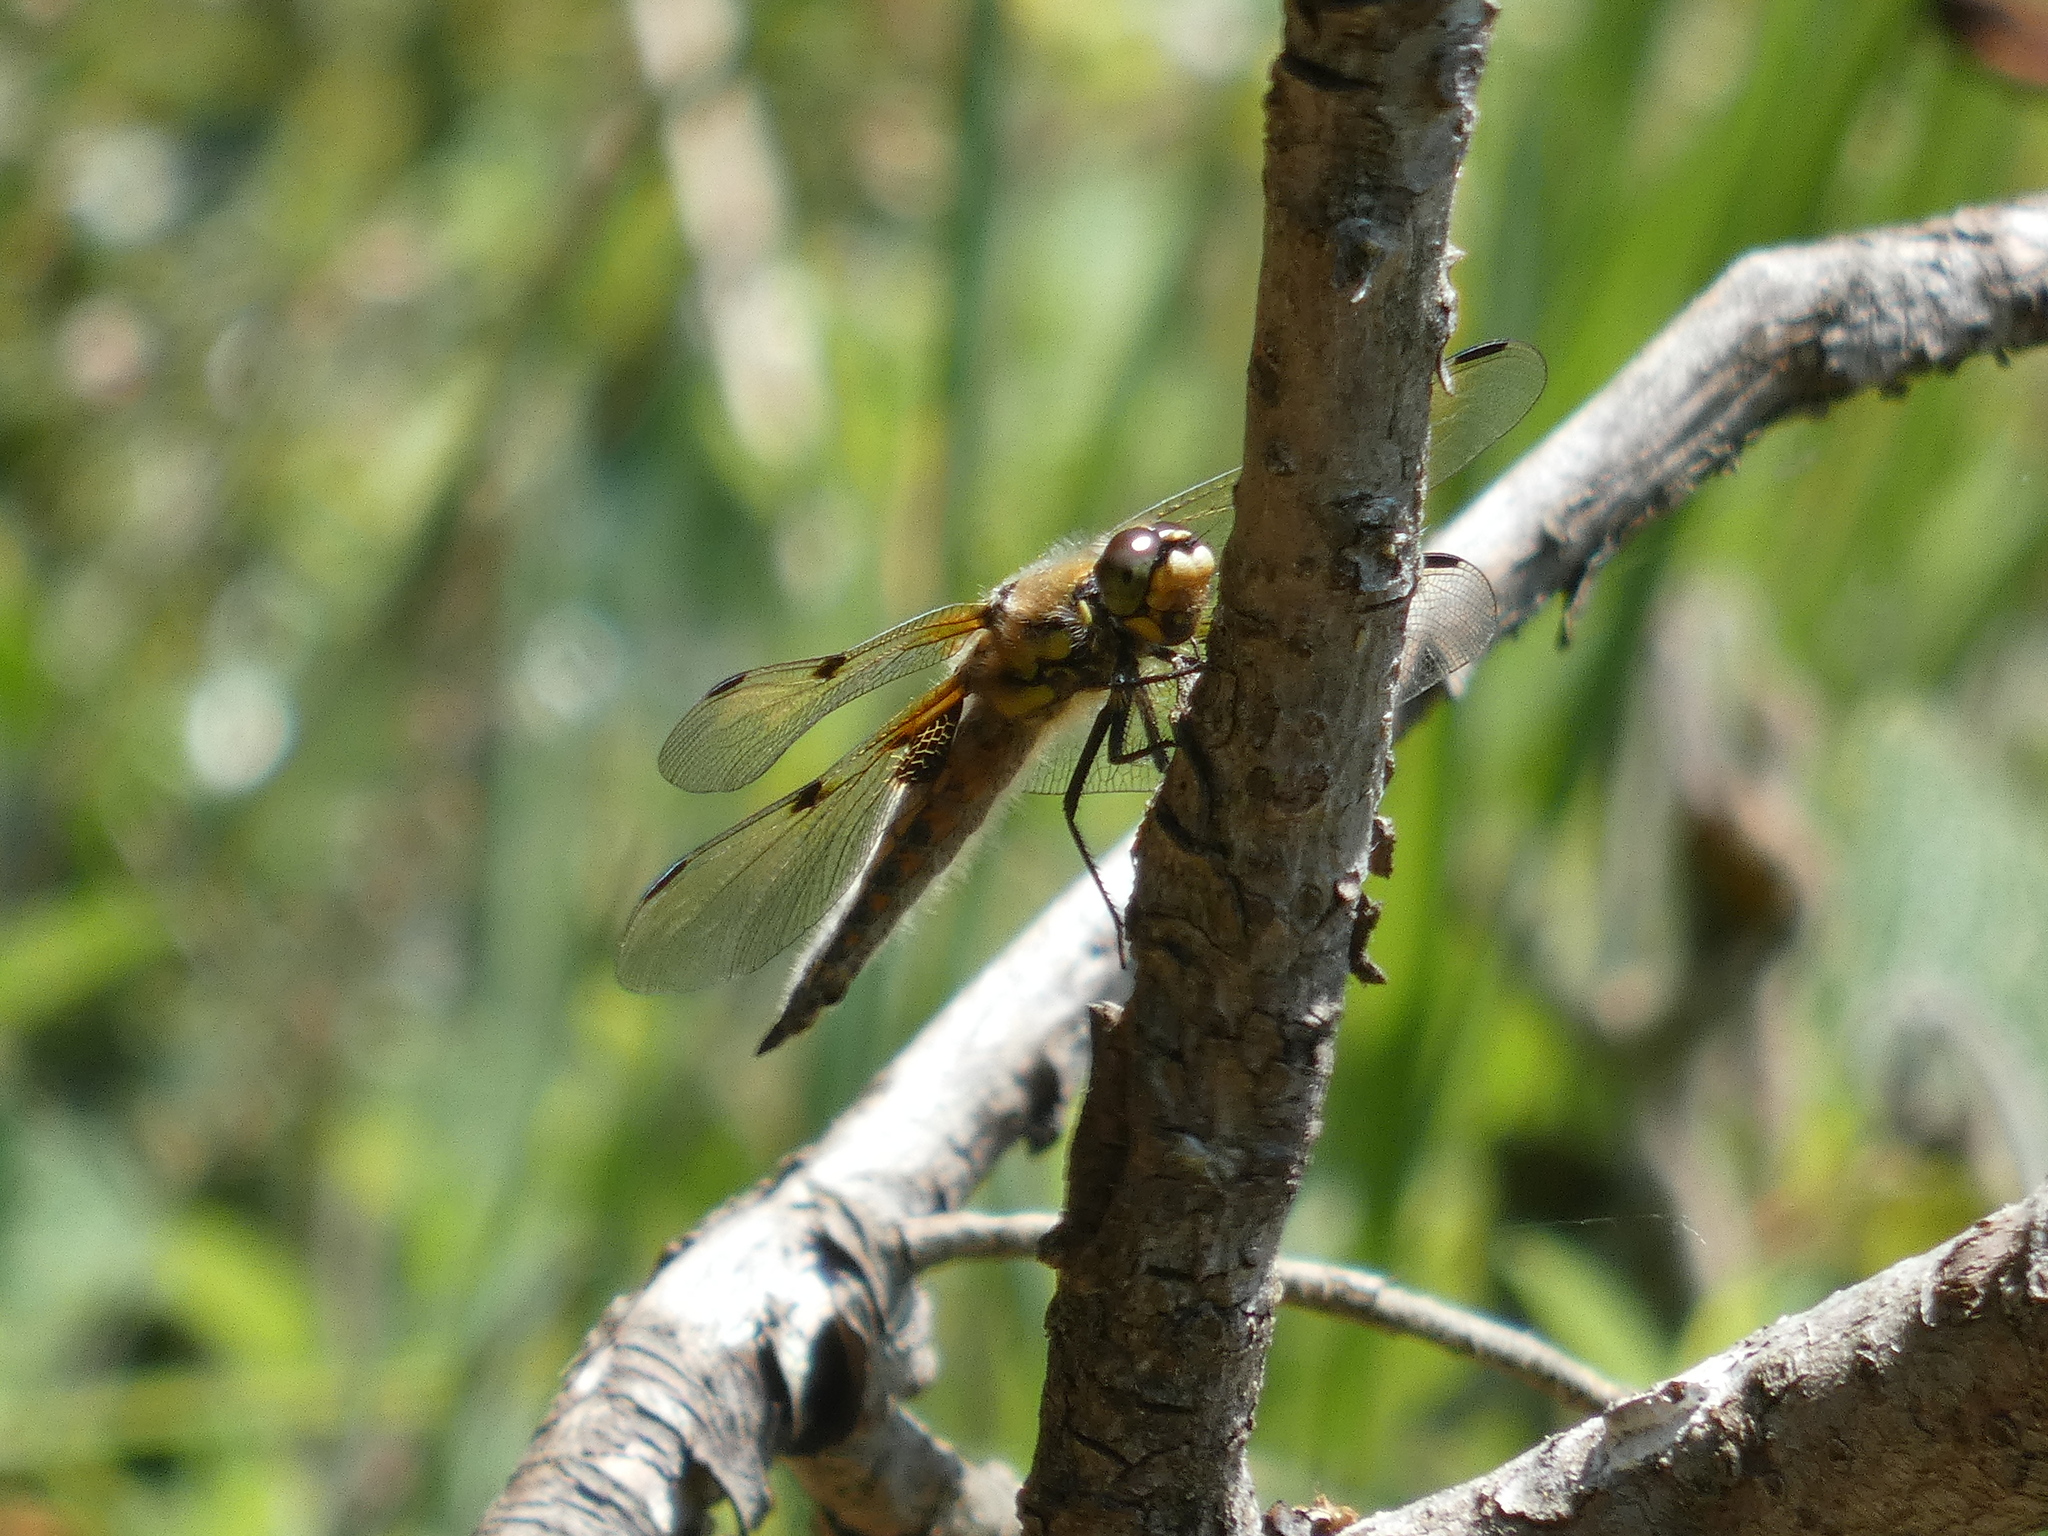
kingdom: Animalia
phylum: Arthropoda
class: Insecta
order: Odonata
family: Libellulidae
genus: Libellula
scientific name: Libellula quadrimaculata
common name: Four-spotted chaser
